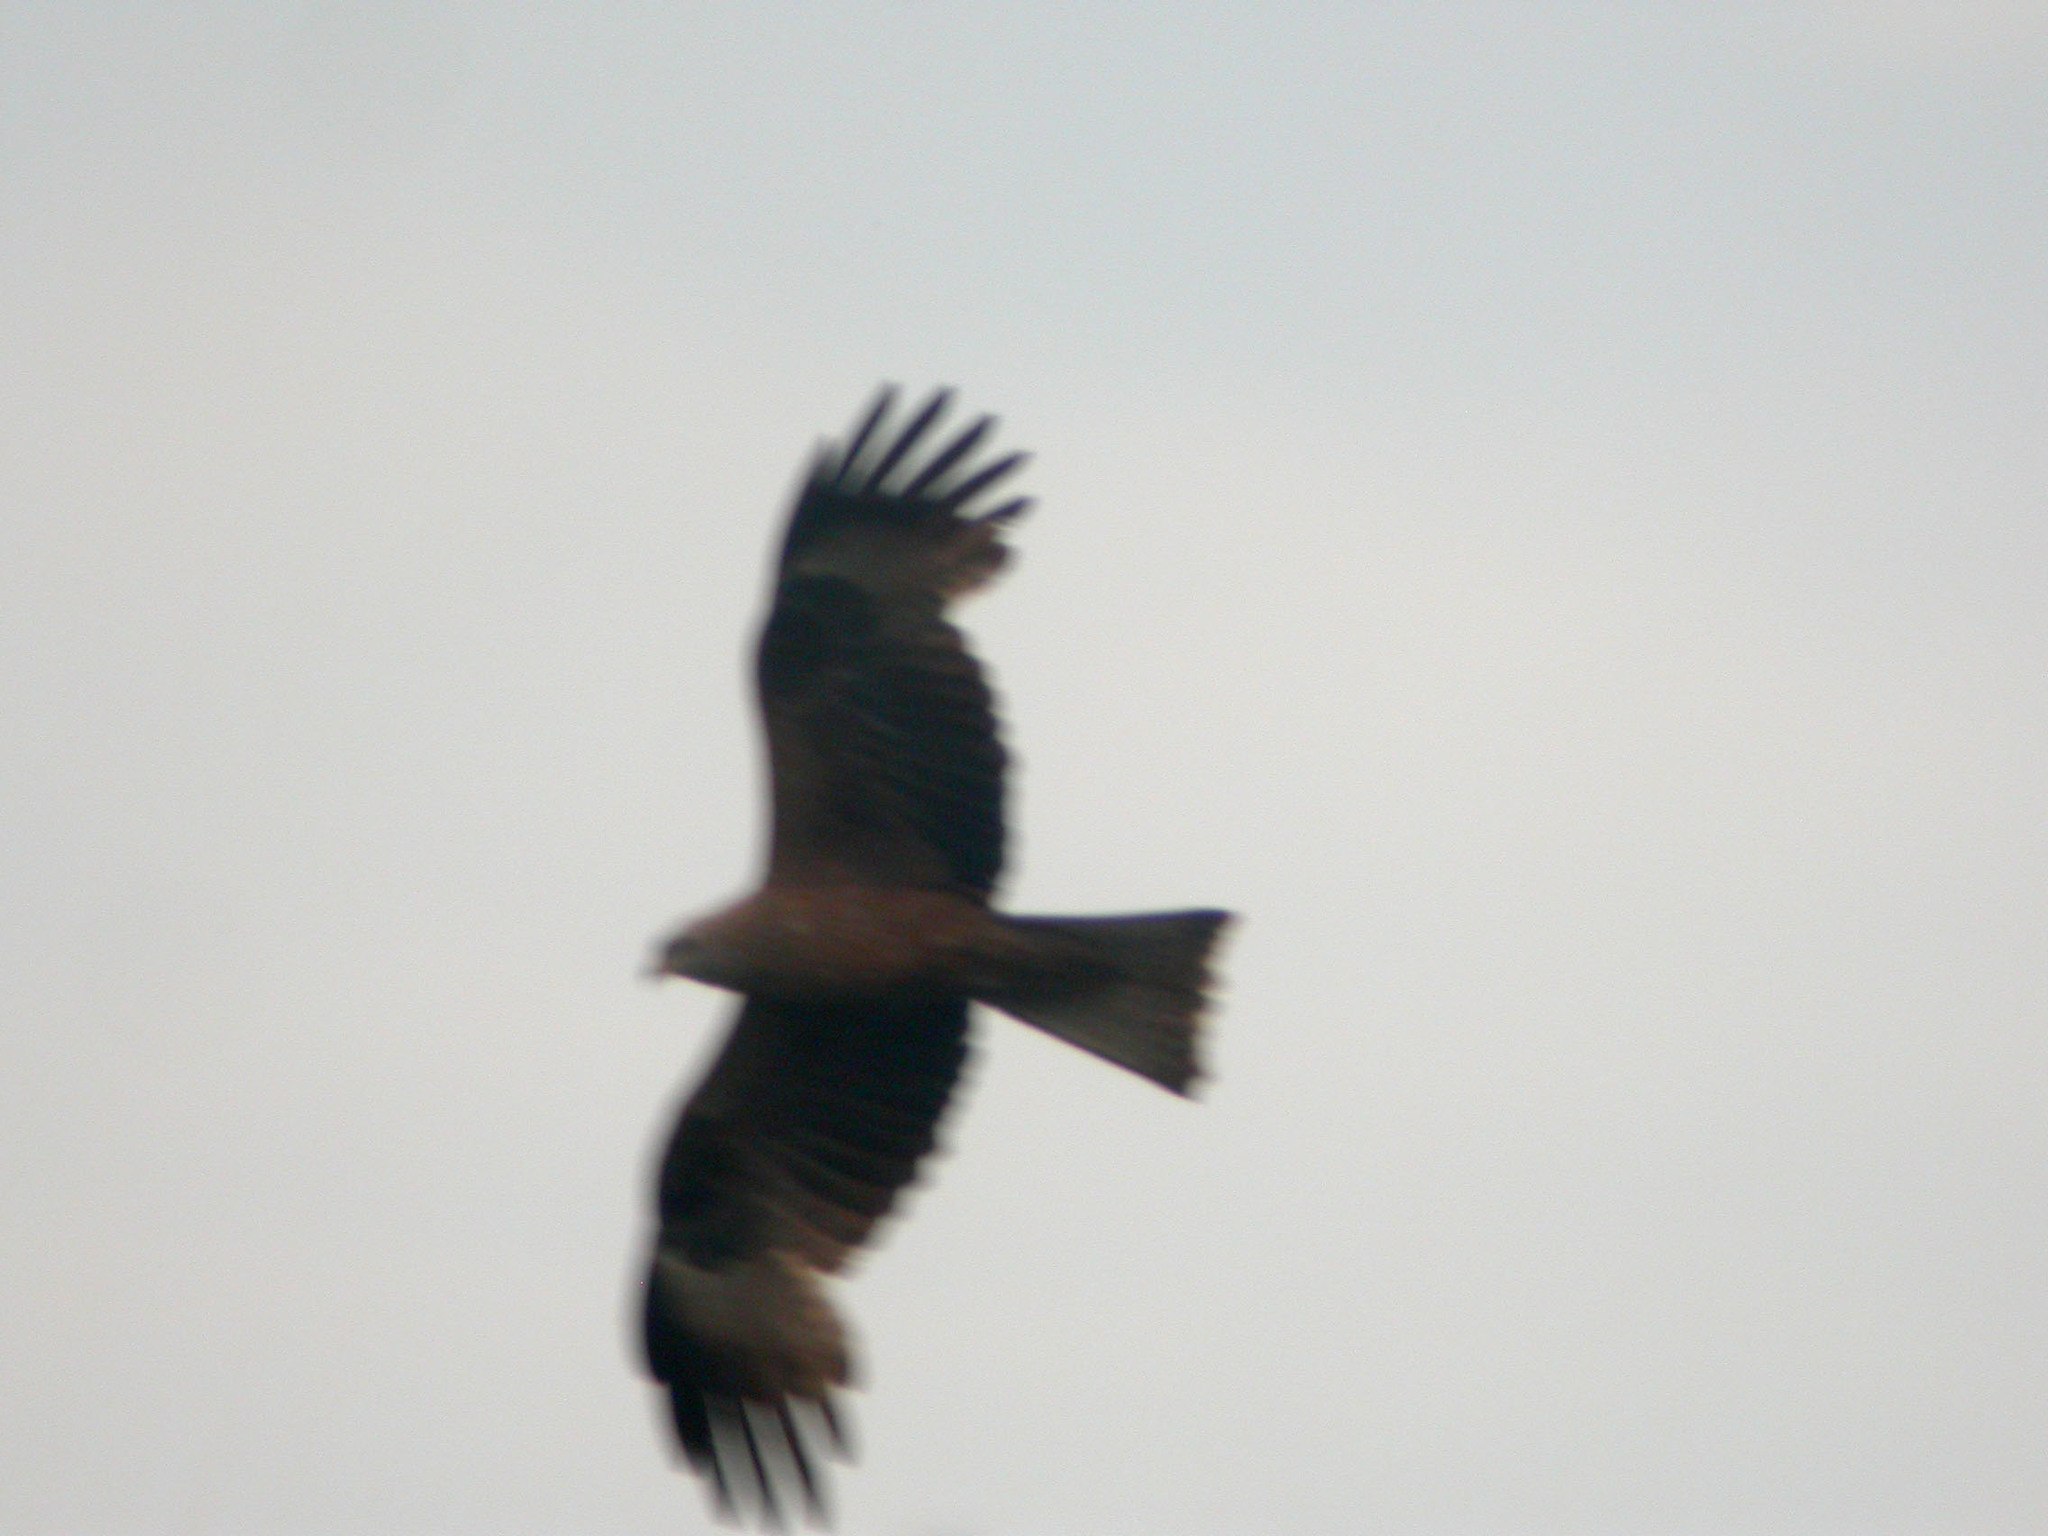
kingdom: Animalia
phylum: Chordata
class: Aves
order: Accipitriformes
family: Accipitridae
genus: Milvus
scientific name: Milvus migrans
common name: Black kite
